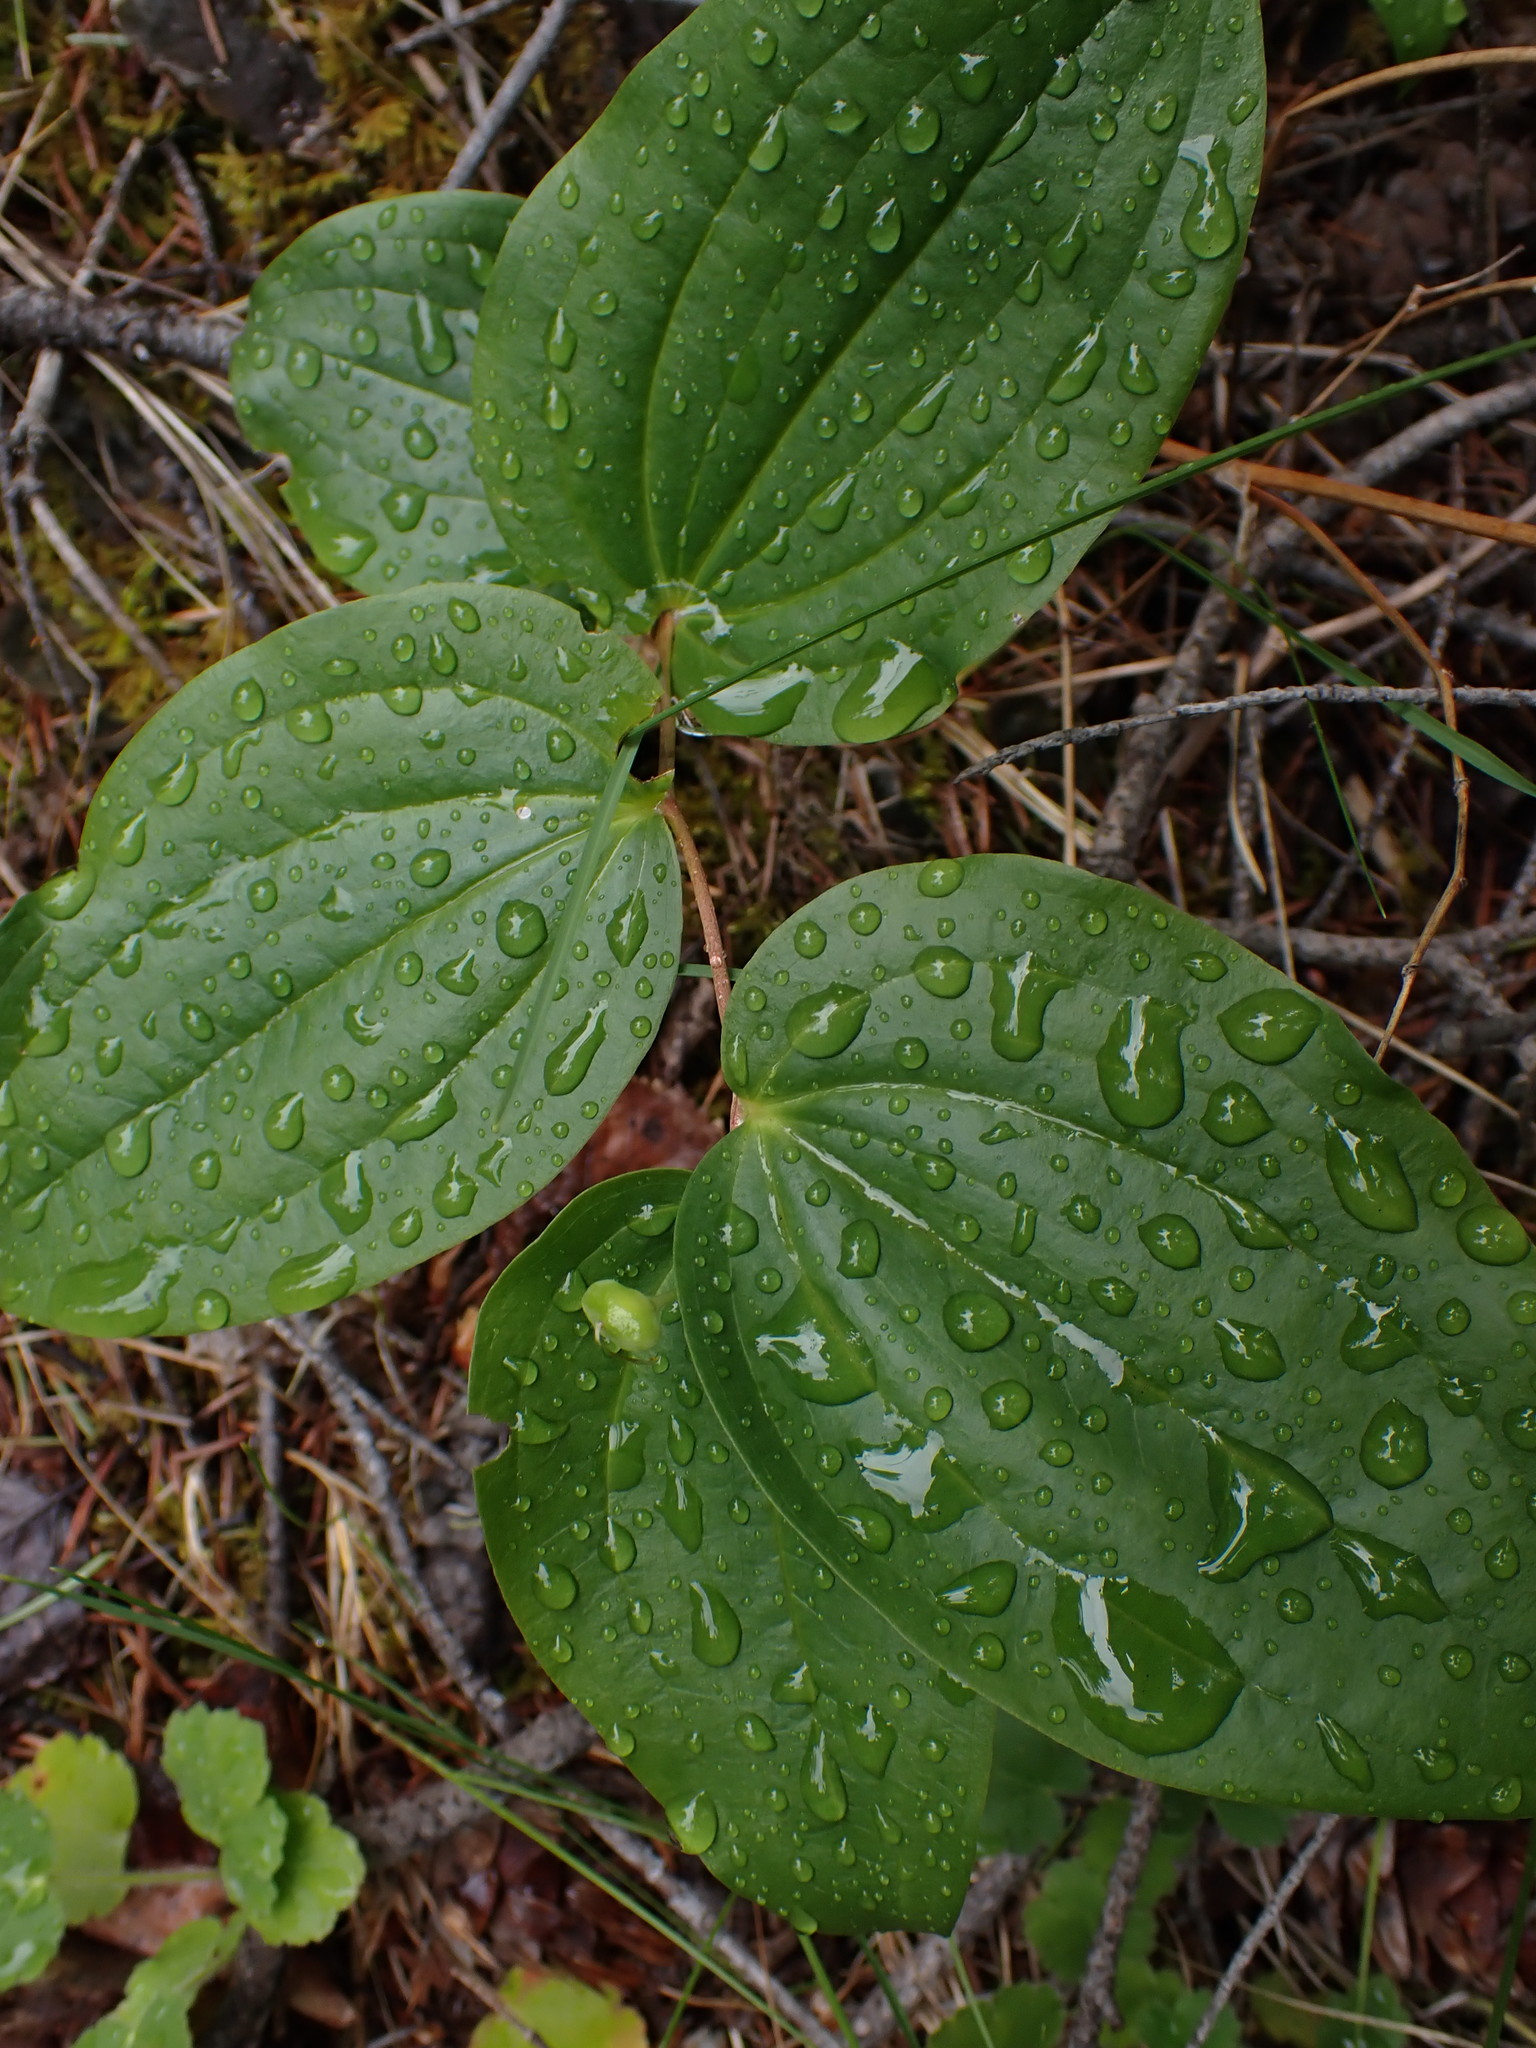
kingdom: Plantae
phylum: Tracheophyta
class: Liliopsida
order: Liliales
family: Liliaceae
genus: Prosartes
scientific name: Prosartes trachycarpa
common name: Rough-fruit fairy-bells
